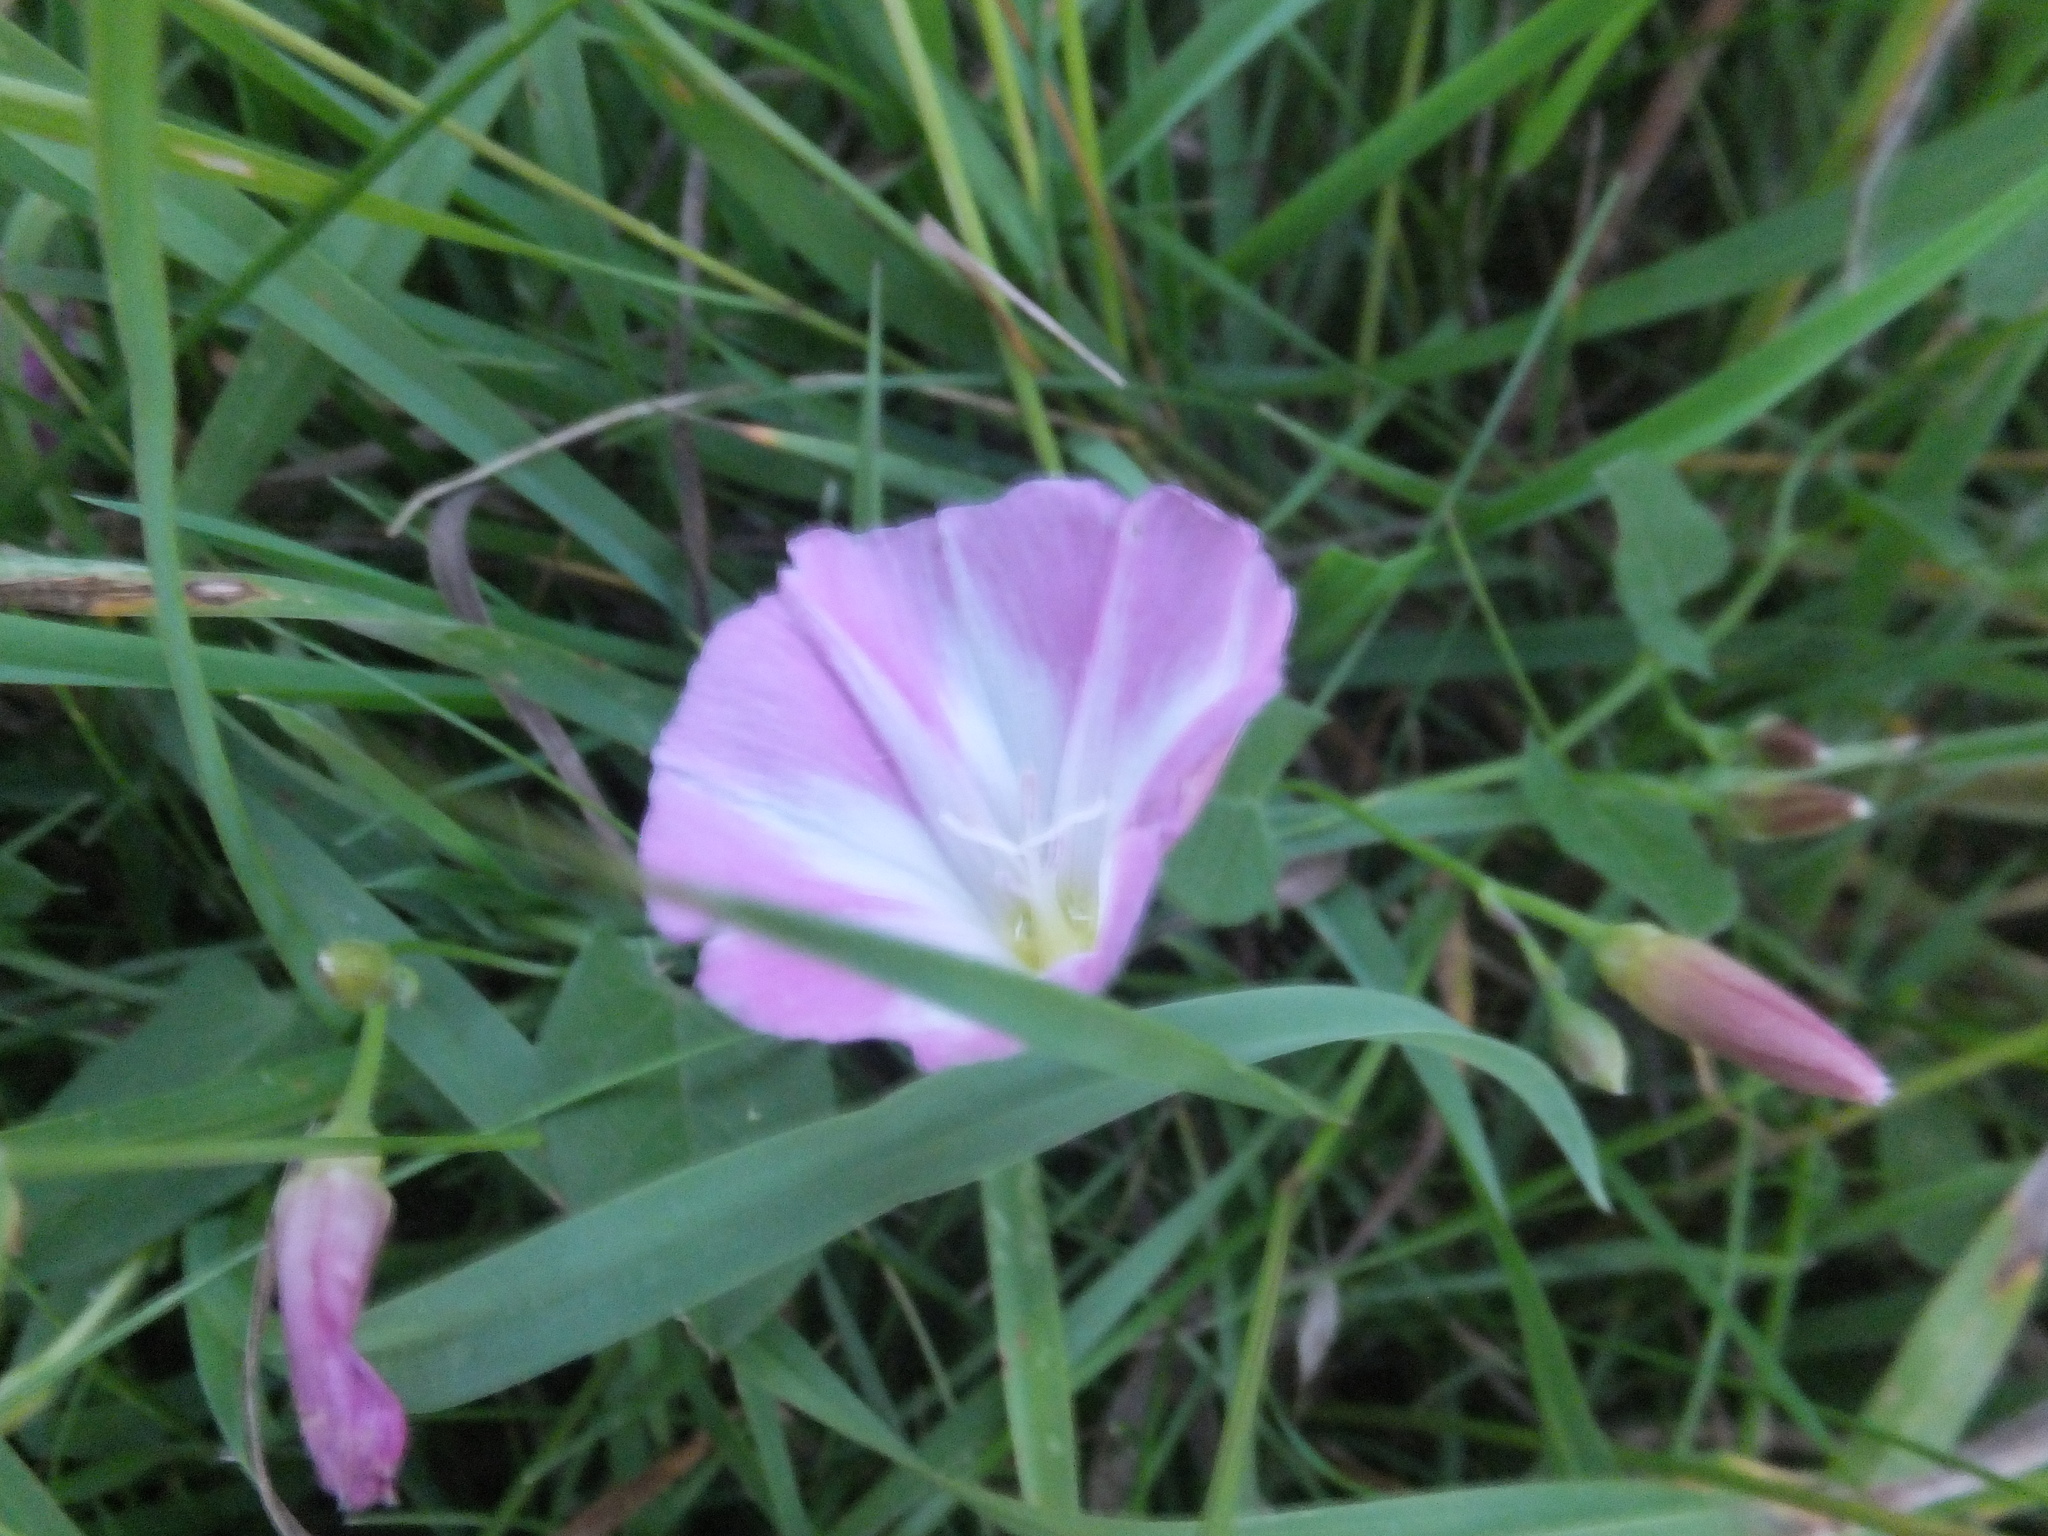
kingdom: Plantae
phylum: Tracheophyta
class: Magnoliopsida
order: Solanales
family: Convolvulaceae
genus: Convolvulus
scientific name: Convolvulus arvensis
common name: Field bindweed
